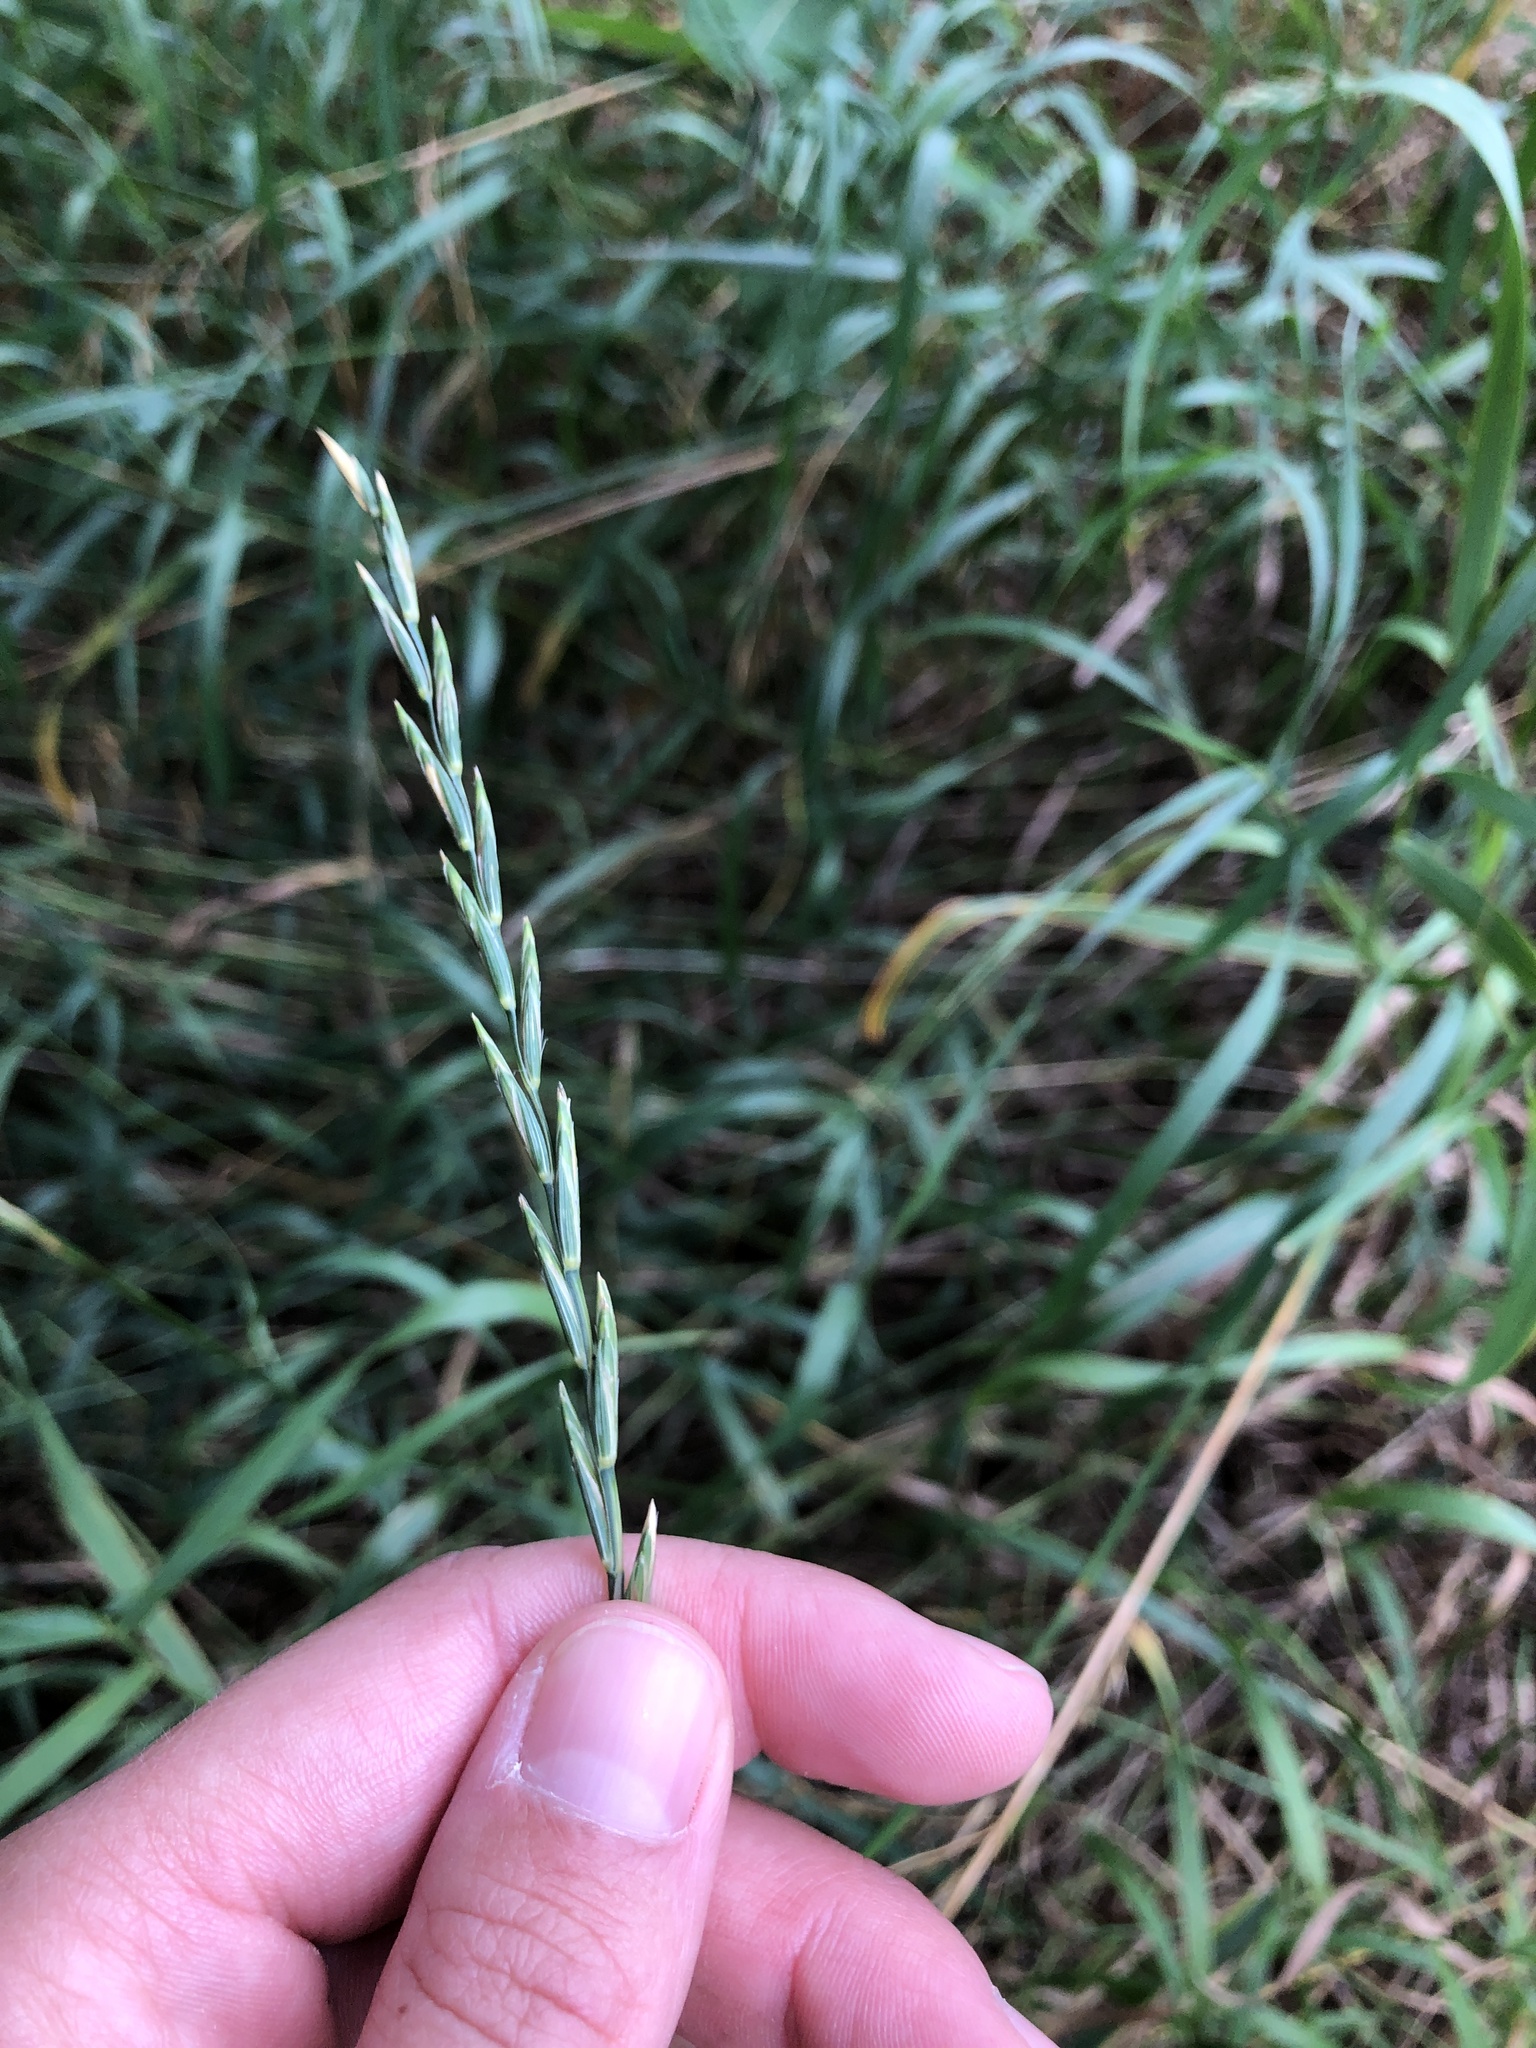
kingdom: Plantae
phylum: Tracheophyta
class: Liliopsida
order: Poales
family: Poaceae
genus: Elymus
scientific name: Elymus repens
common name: Quackgrass
